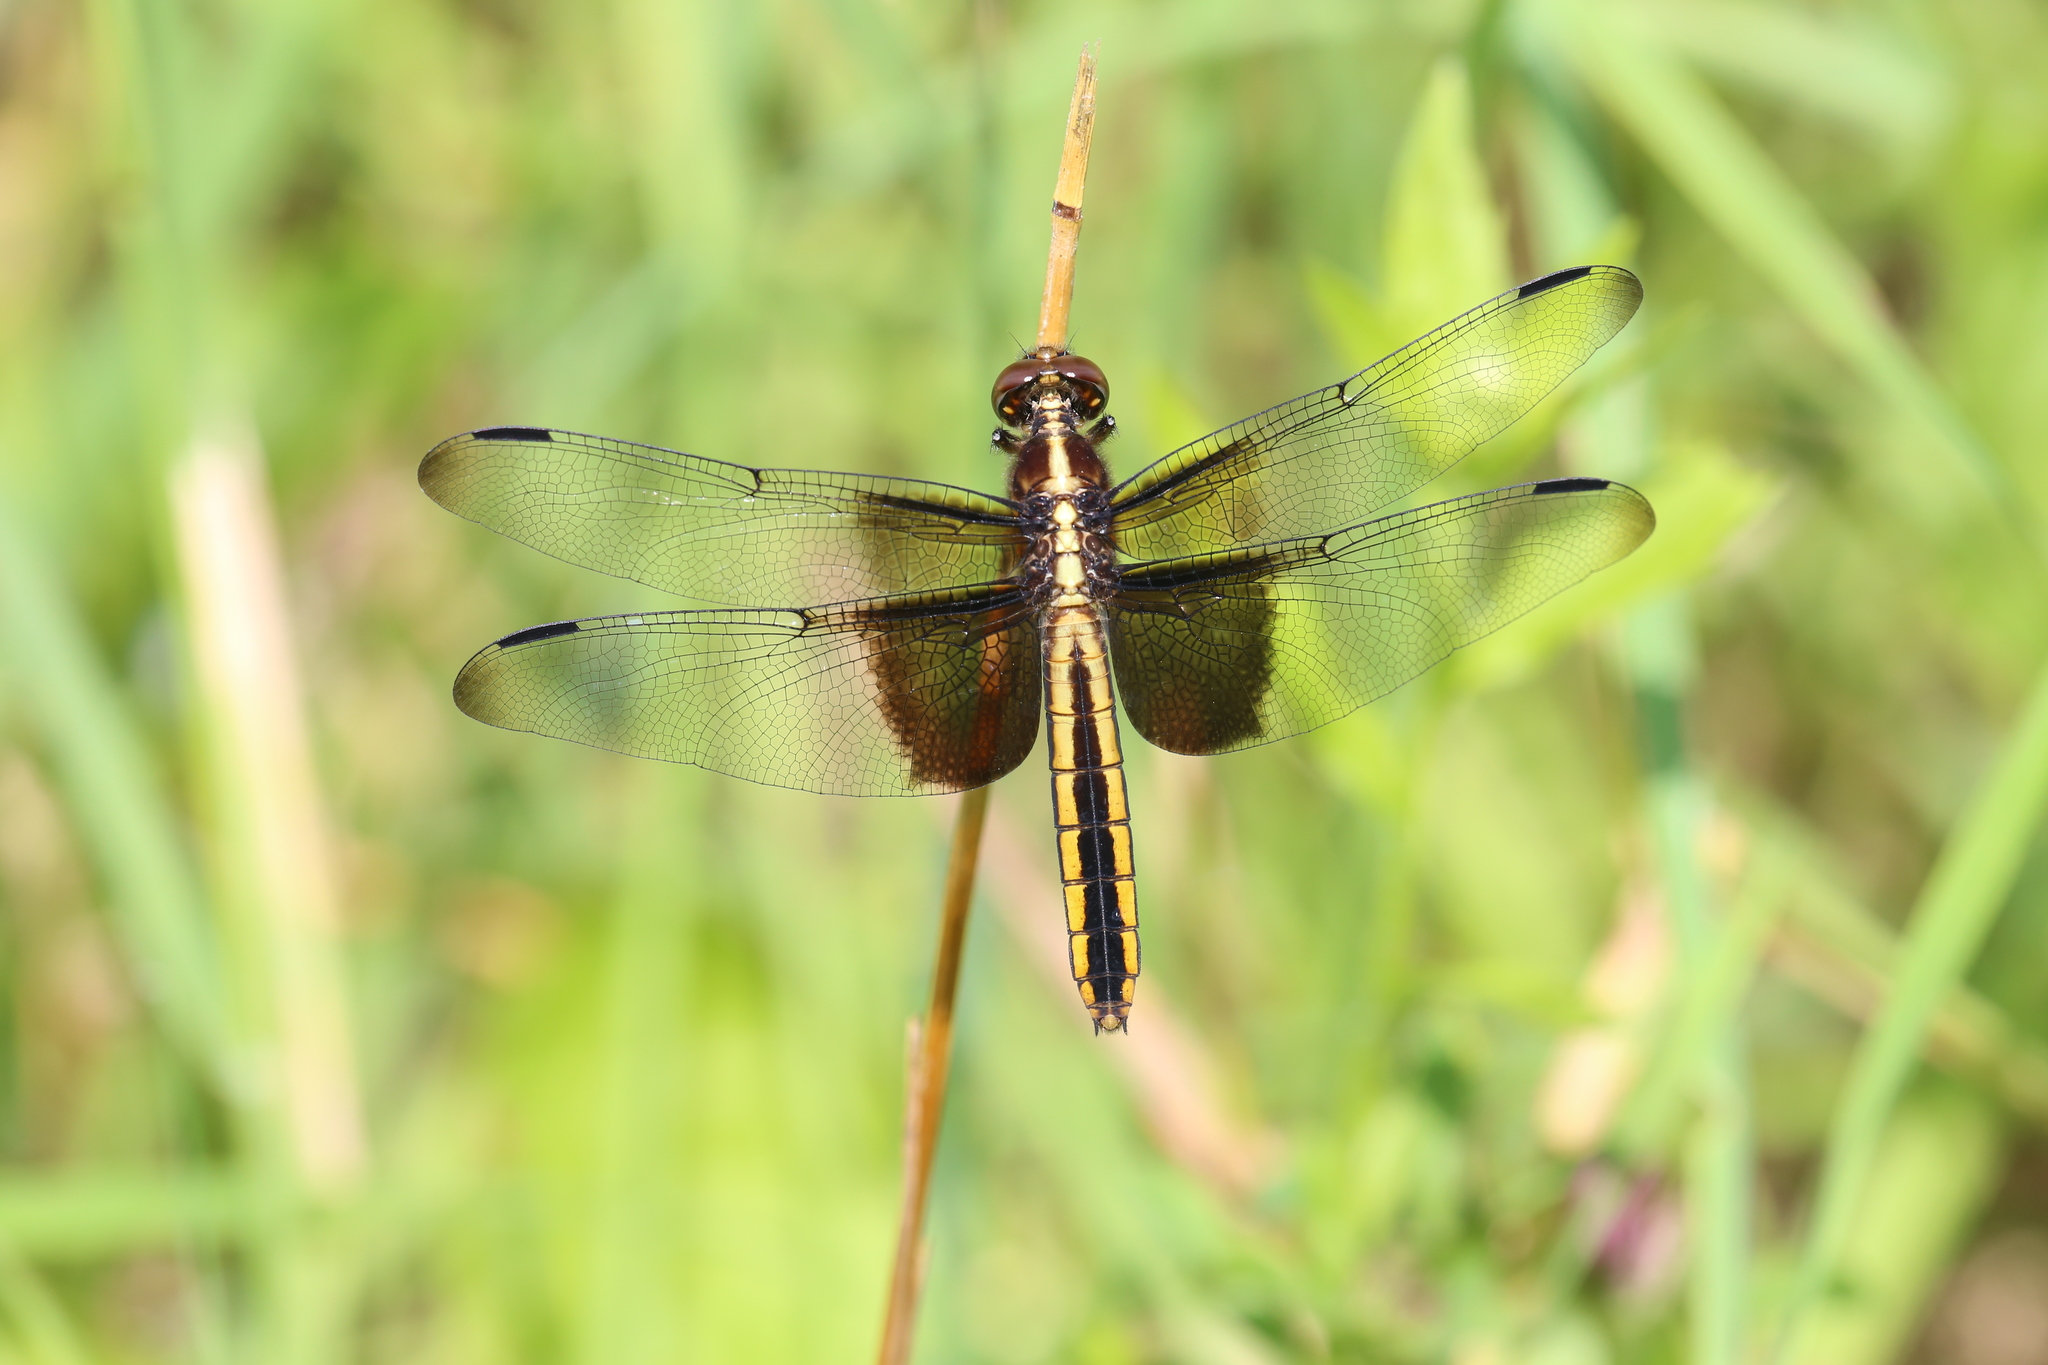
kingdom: Animalia
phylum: Arthropoda
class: Insecta
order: Odonata
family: Libellulidae
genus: Libellula
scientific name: Libellula luctuosa
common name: Widow skimmer
